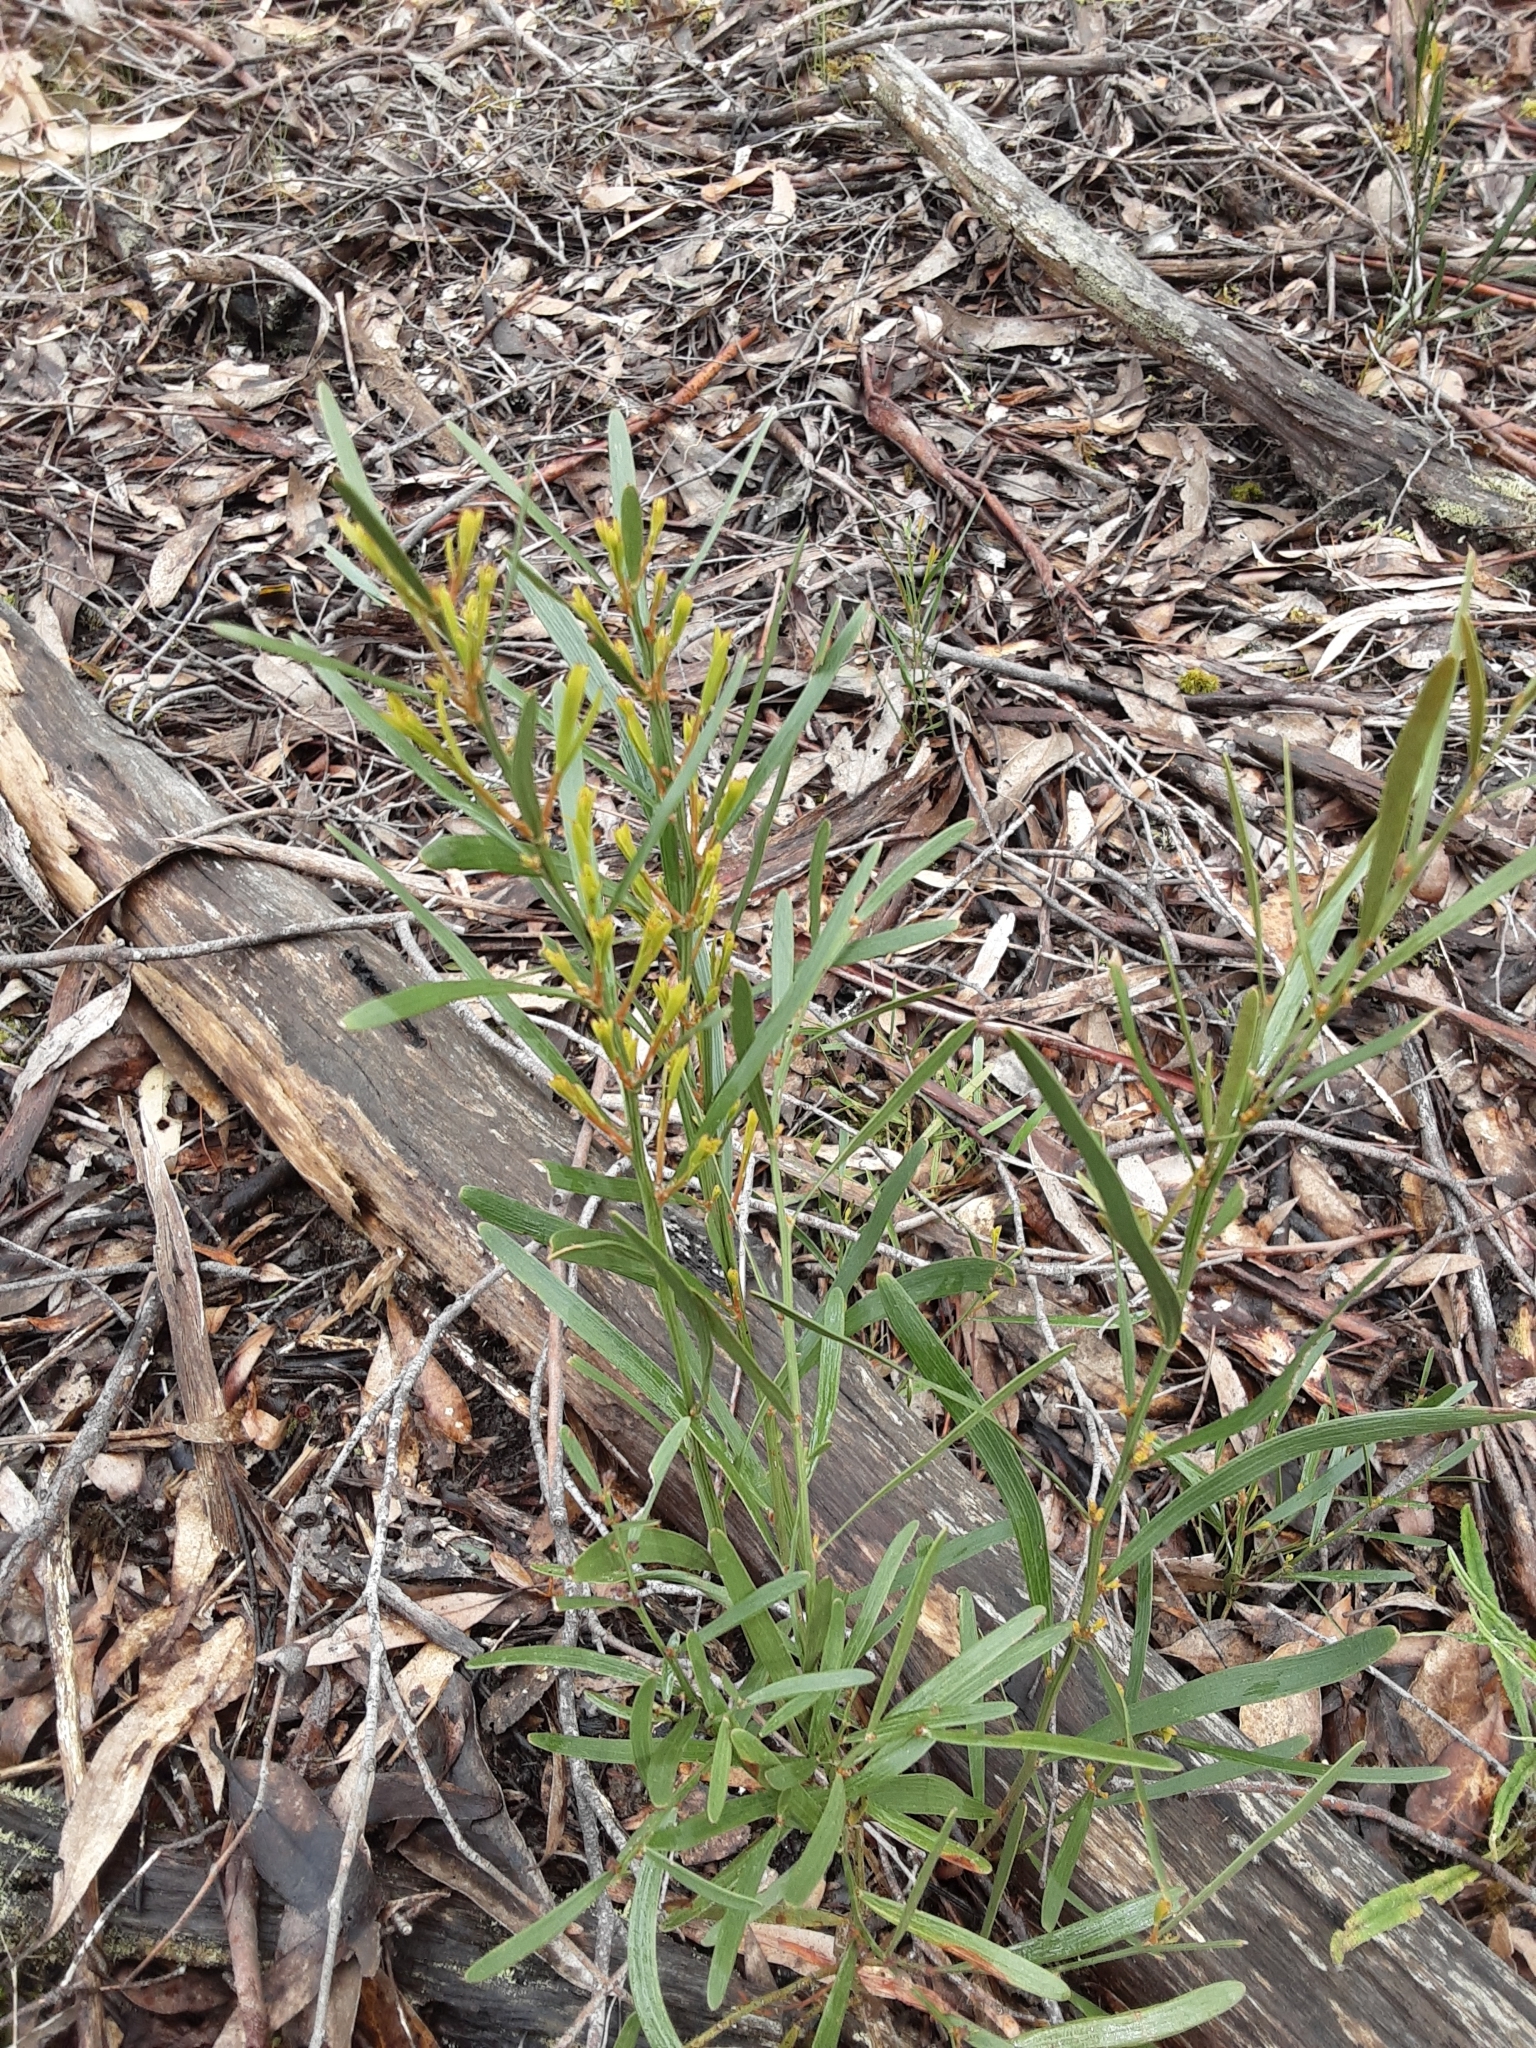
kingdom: Plantae
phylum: Tracheophyta
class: Magnoliopsida
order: Fabales
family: Fabaceae
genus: Daviesia
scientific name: Daviesia leptophylla
